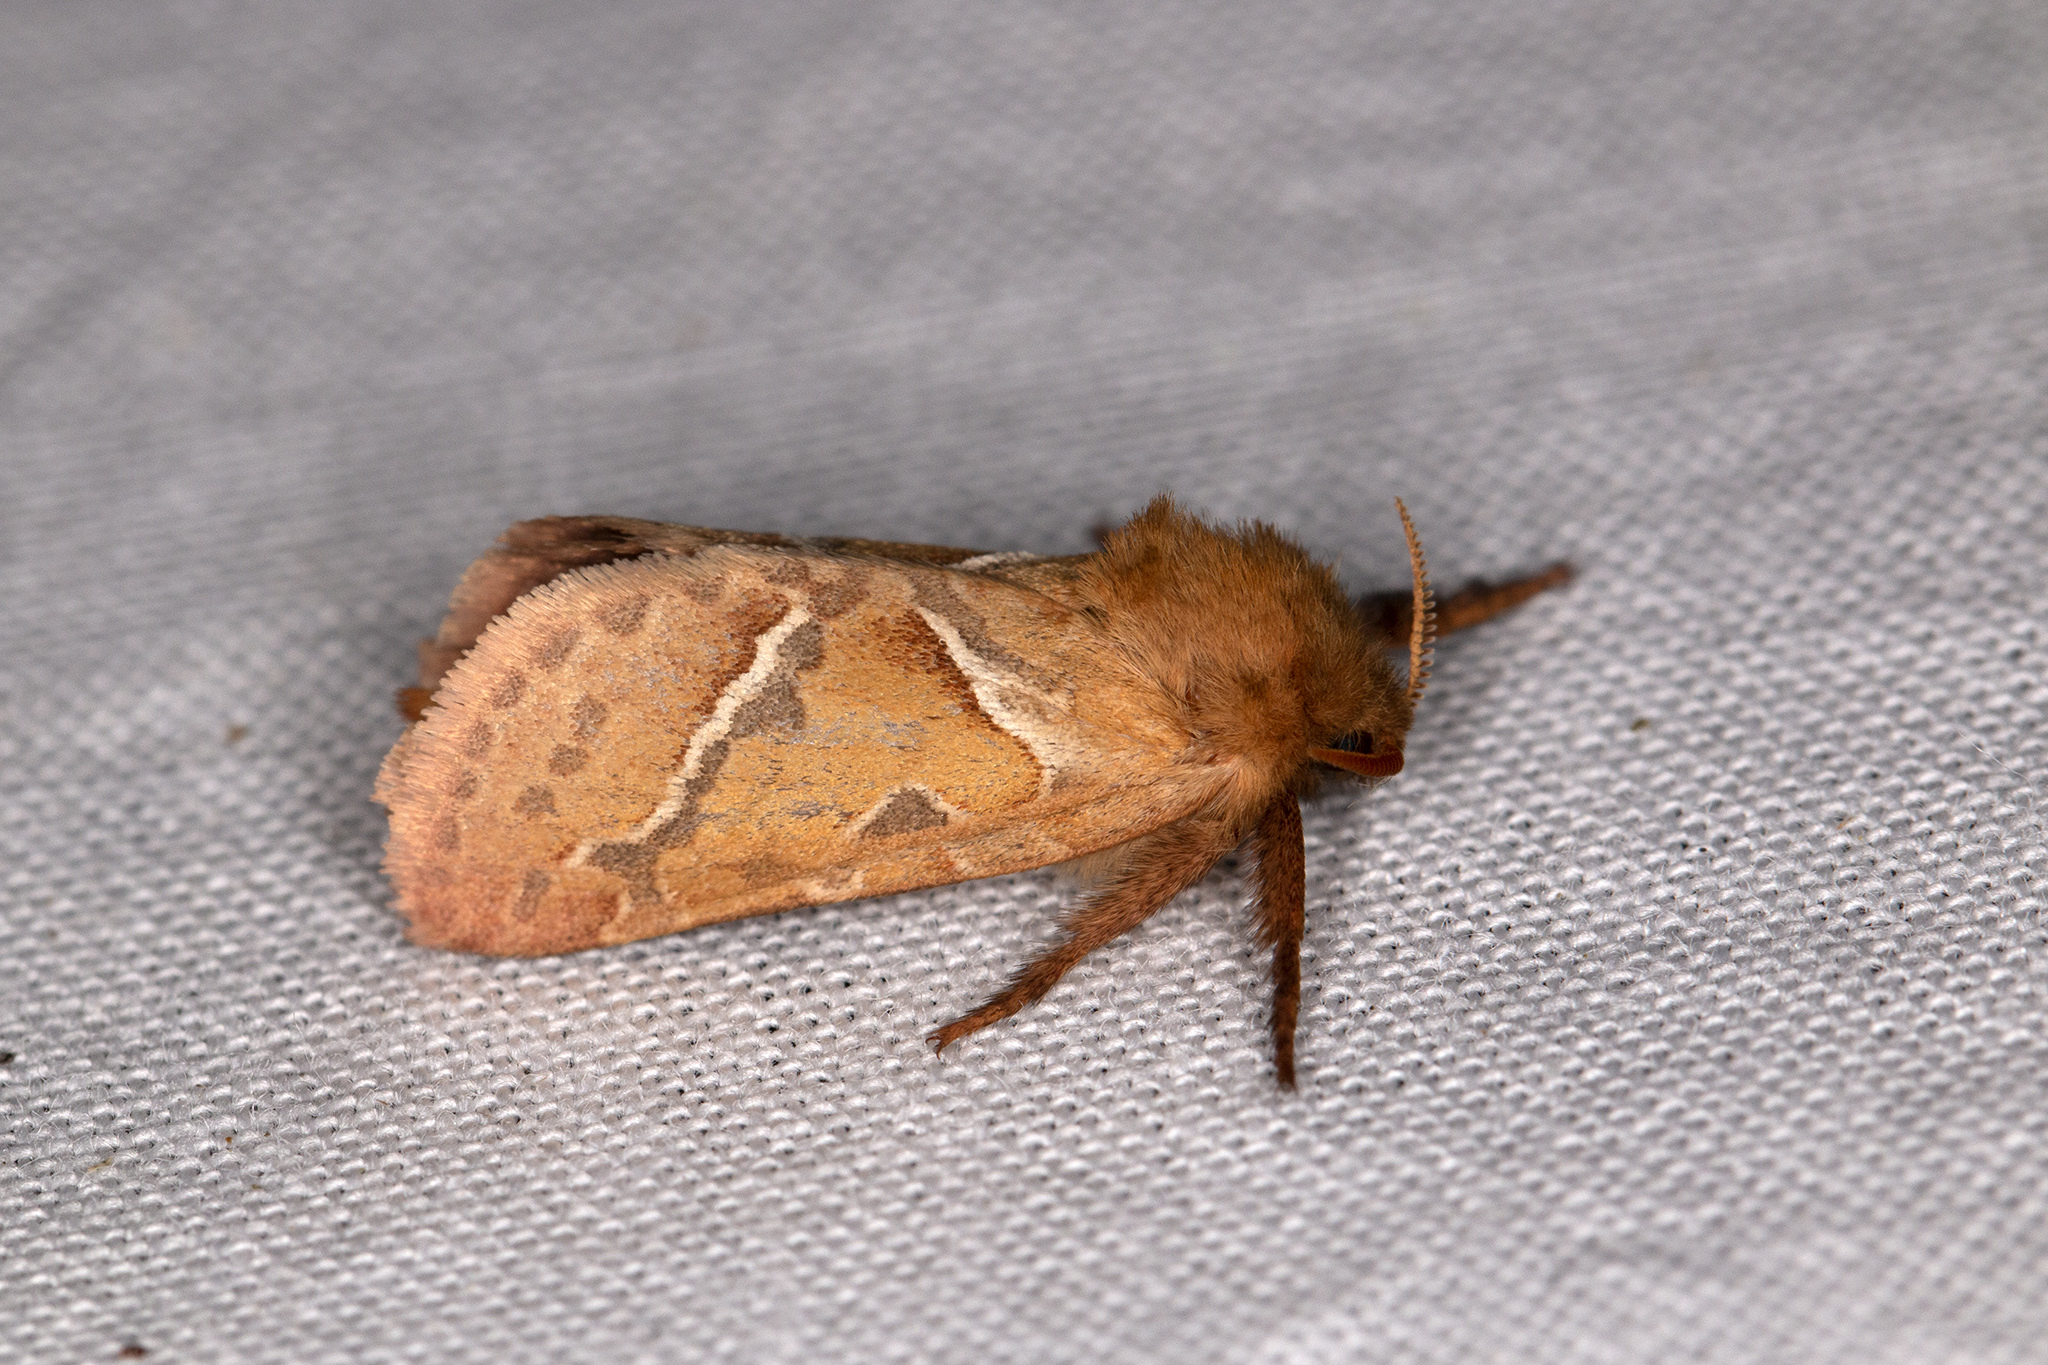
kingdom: Animalia
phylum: Arthropoda
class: Insecta
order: Lepidoptera
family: Hepialidae
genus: Triodia
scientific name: Triodia sylvina
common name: Orange swift
